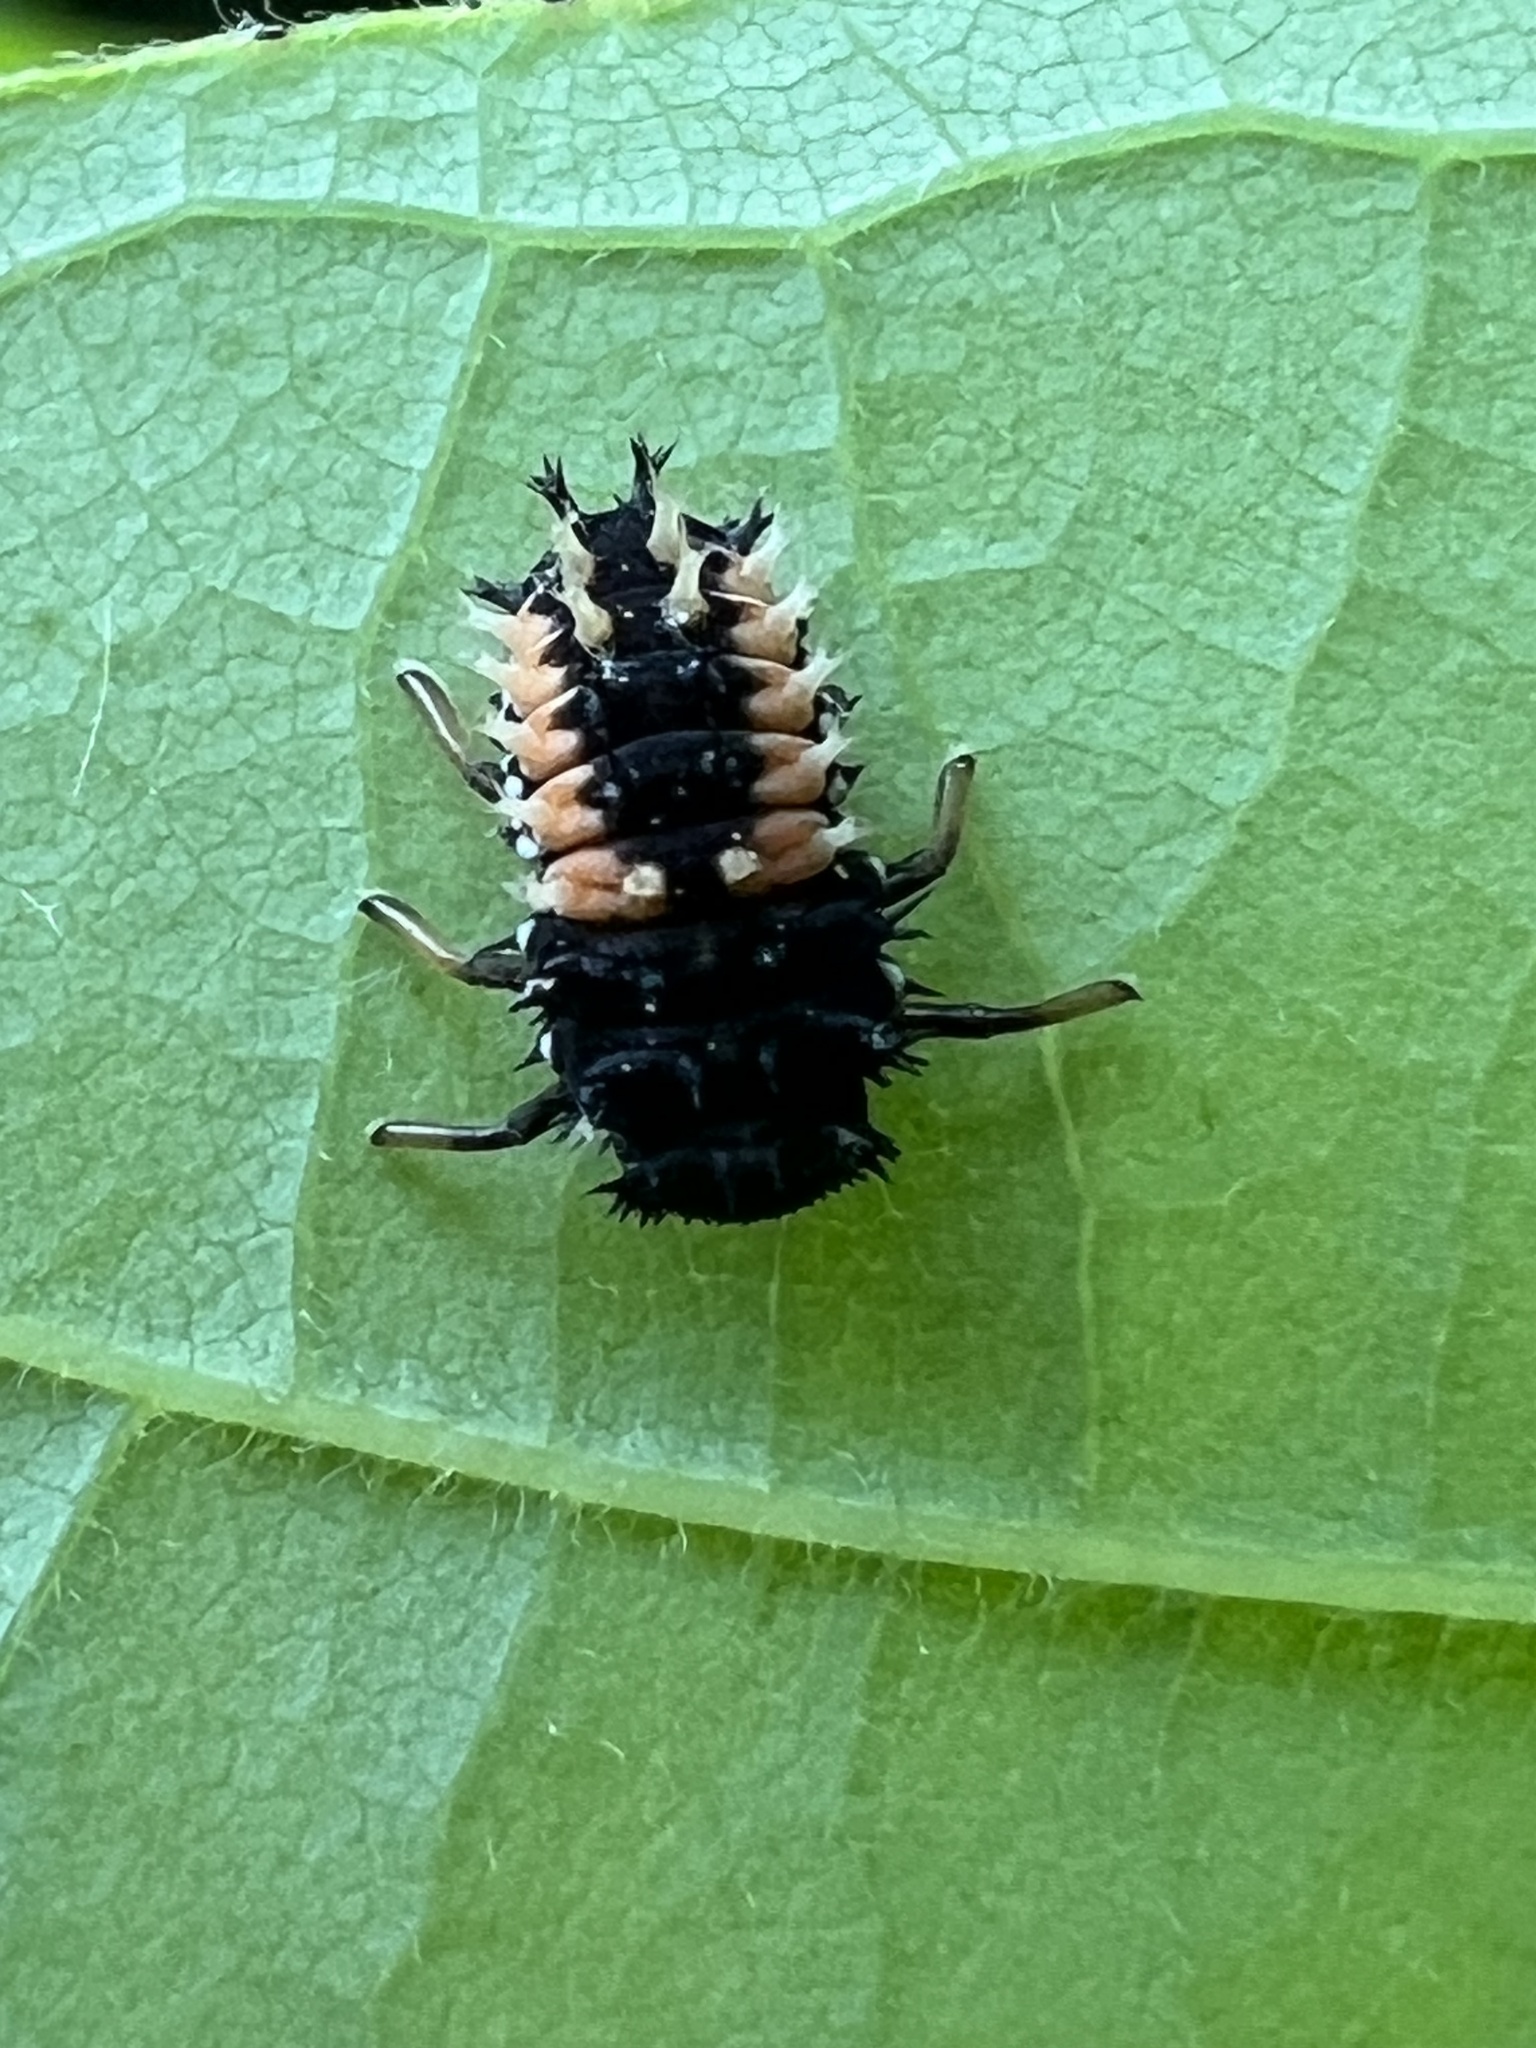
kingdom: Animalia
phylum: Arthropoda
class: Insecta
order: Coleoptera
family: Coccinellidae
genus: Harmonia
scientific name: Harmonia axyridis
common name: Harlequin ladybird
